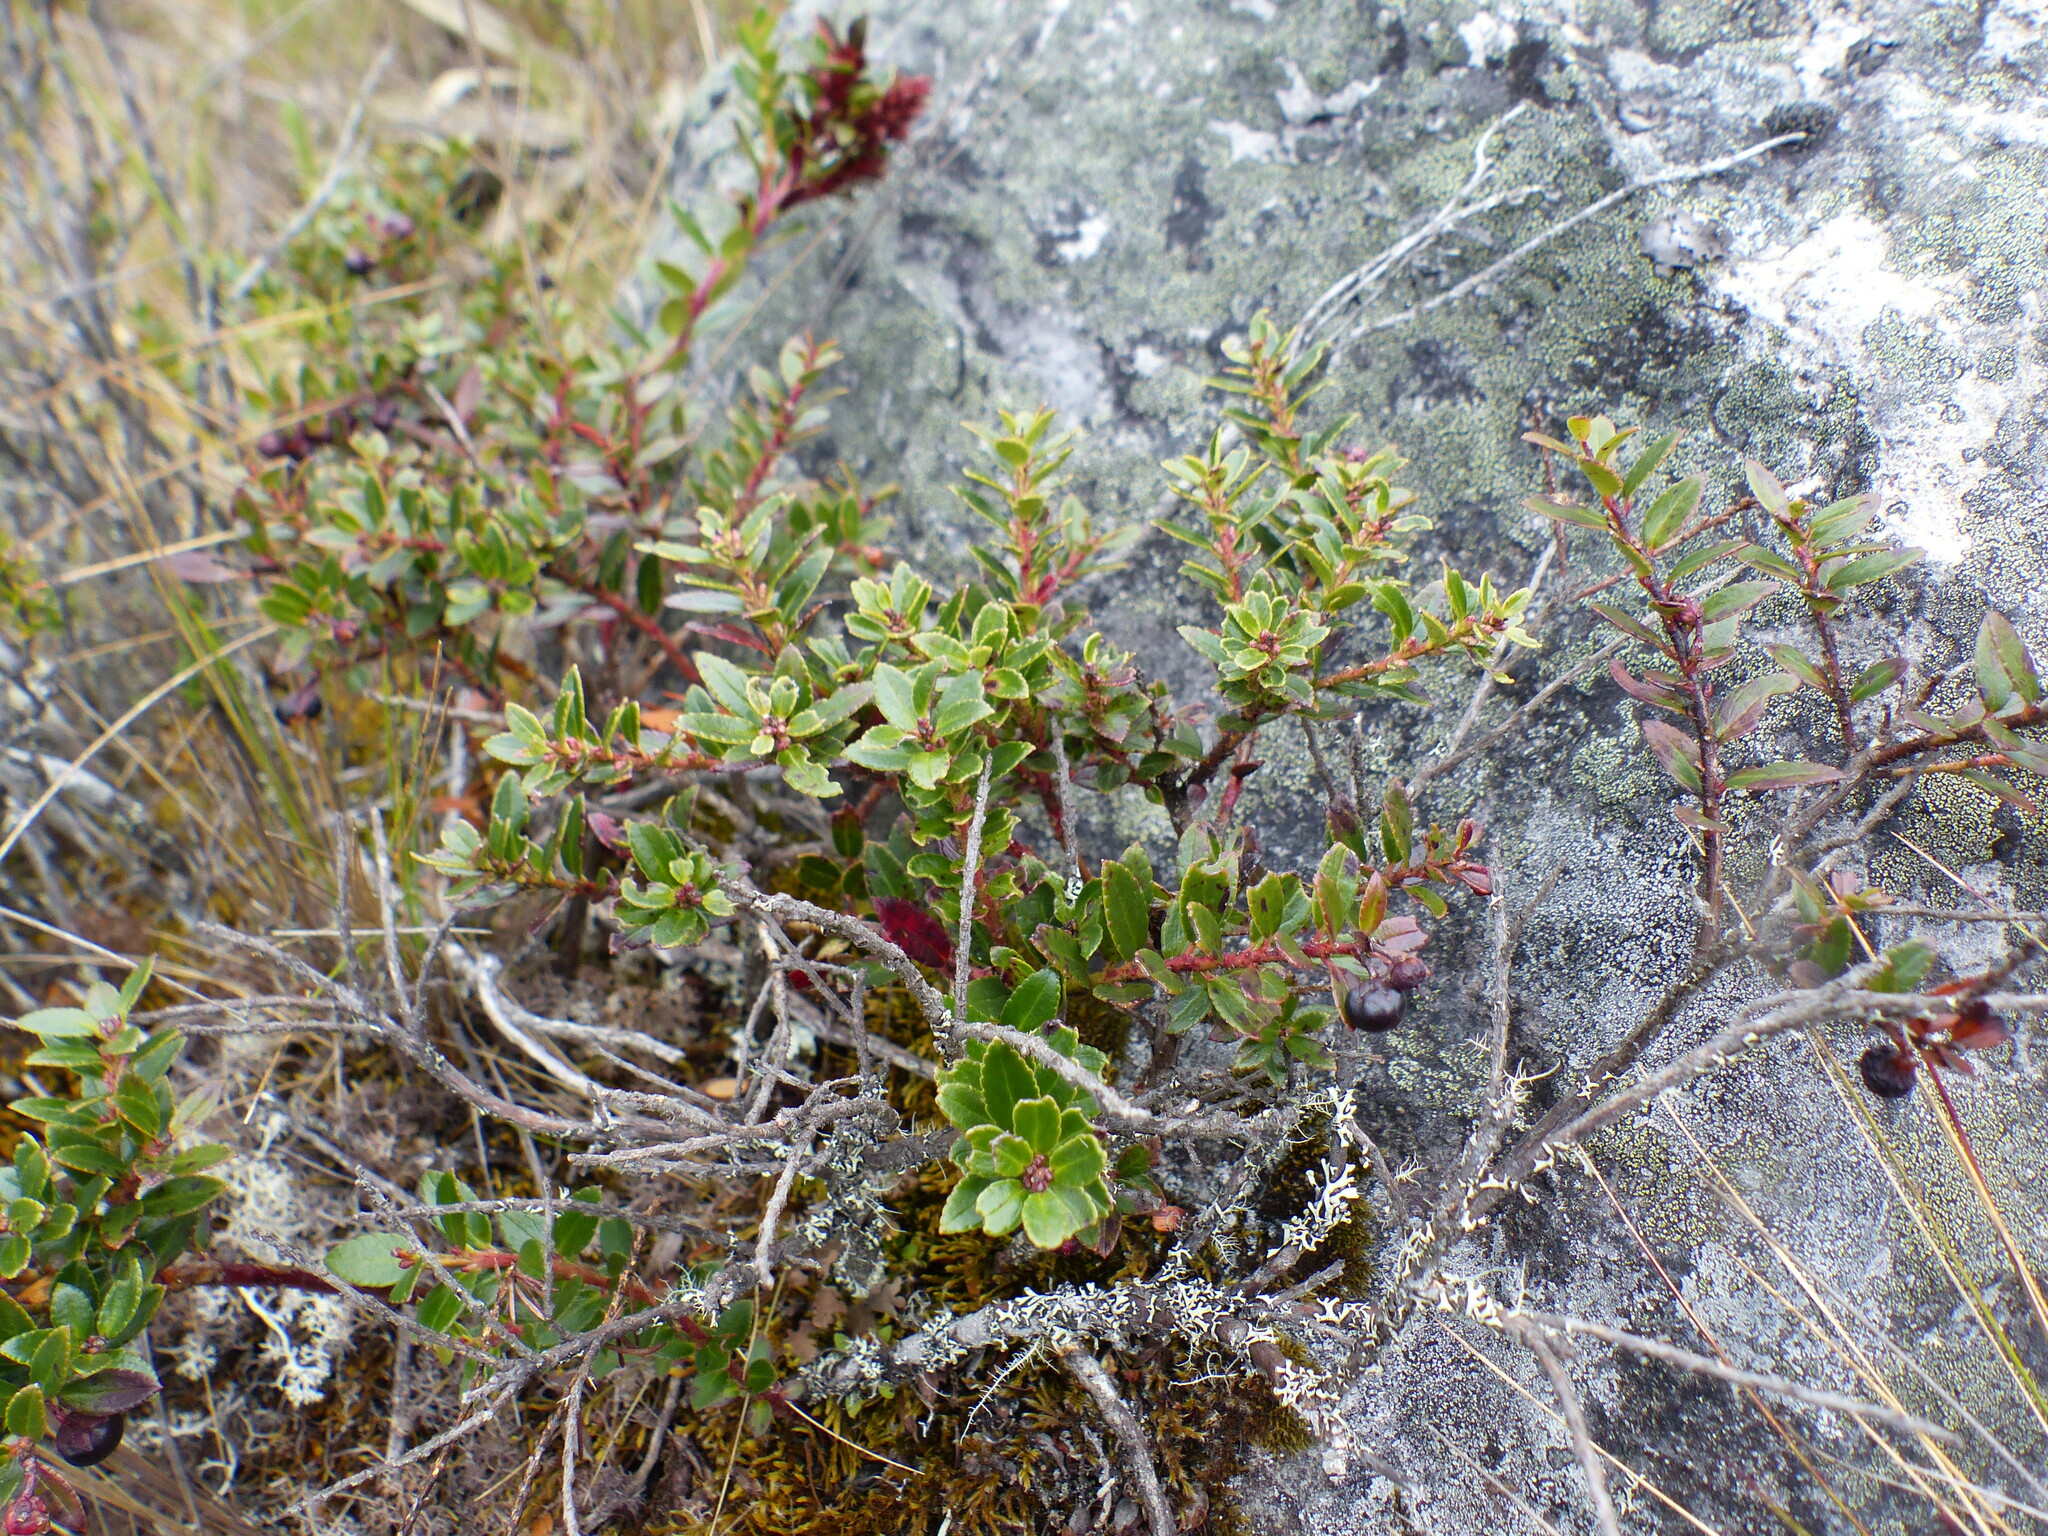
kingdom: Plantae
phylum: Tracheophyta
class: Magnoliopsida
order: Ericales
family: Ericaceae
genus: Gaultheria
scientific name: Gaultheria myrsinoides
